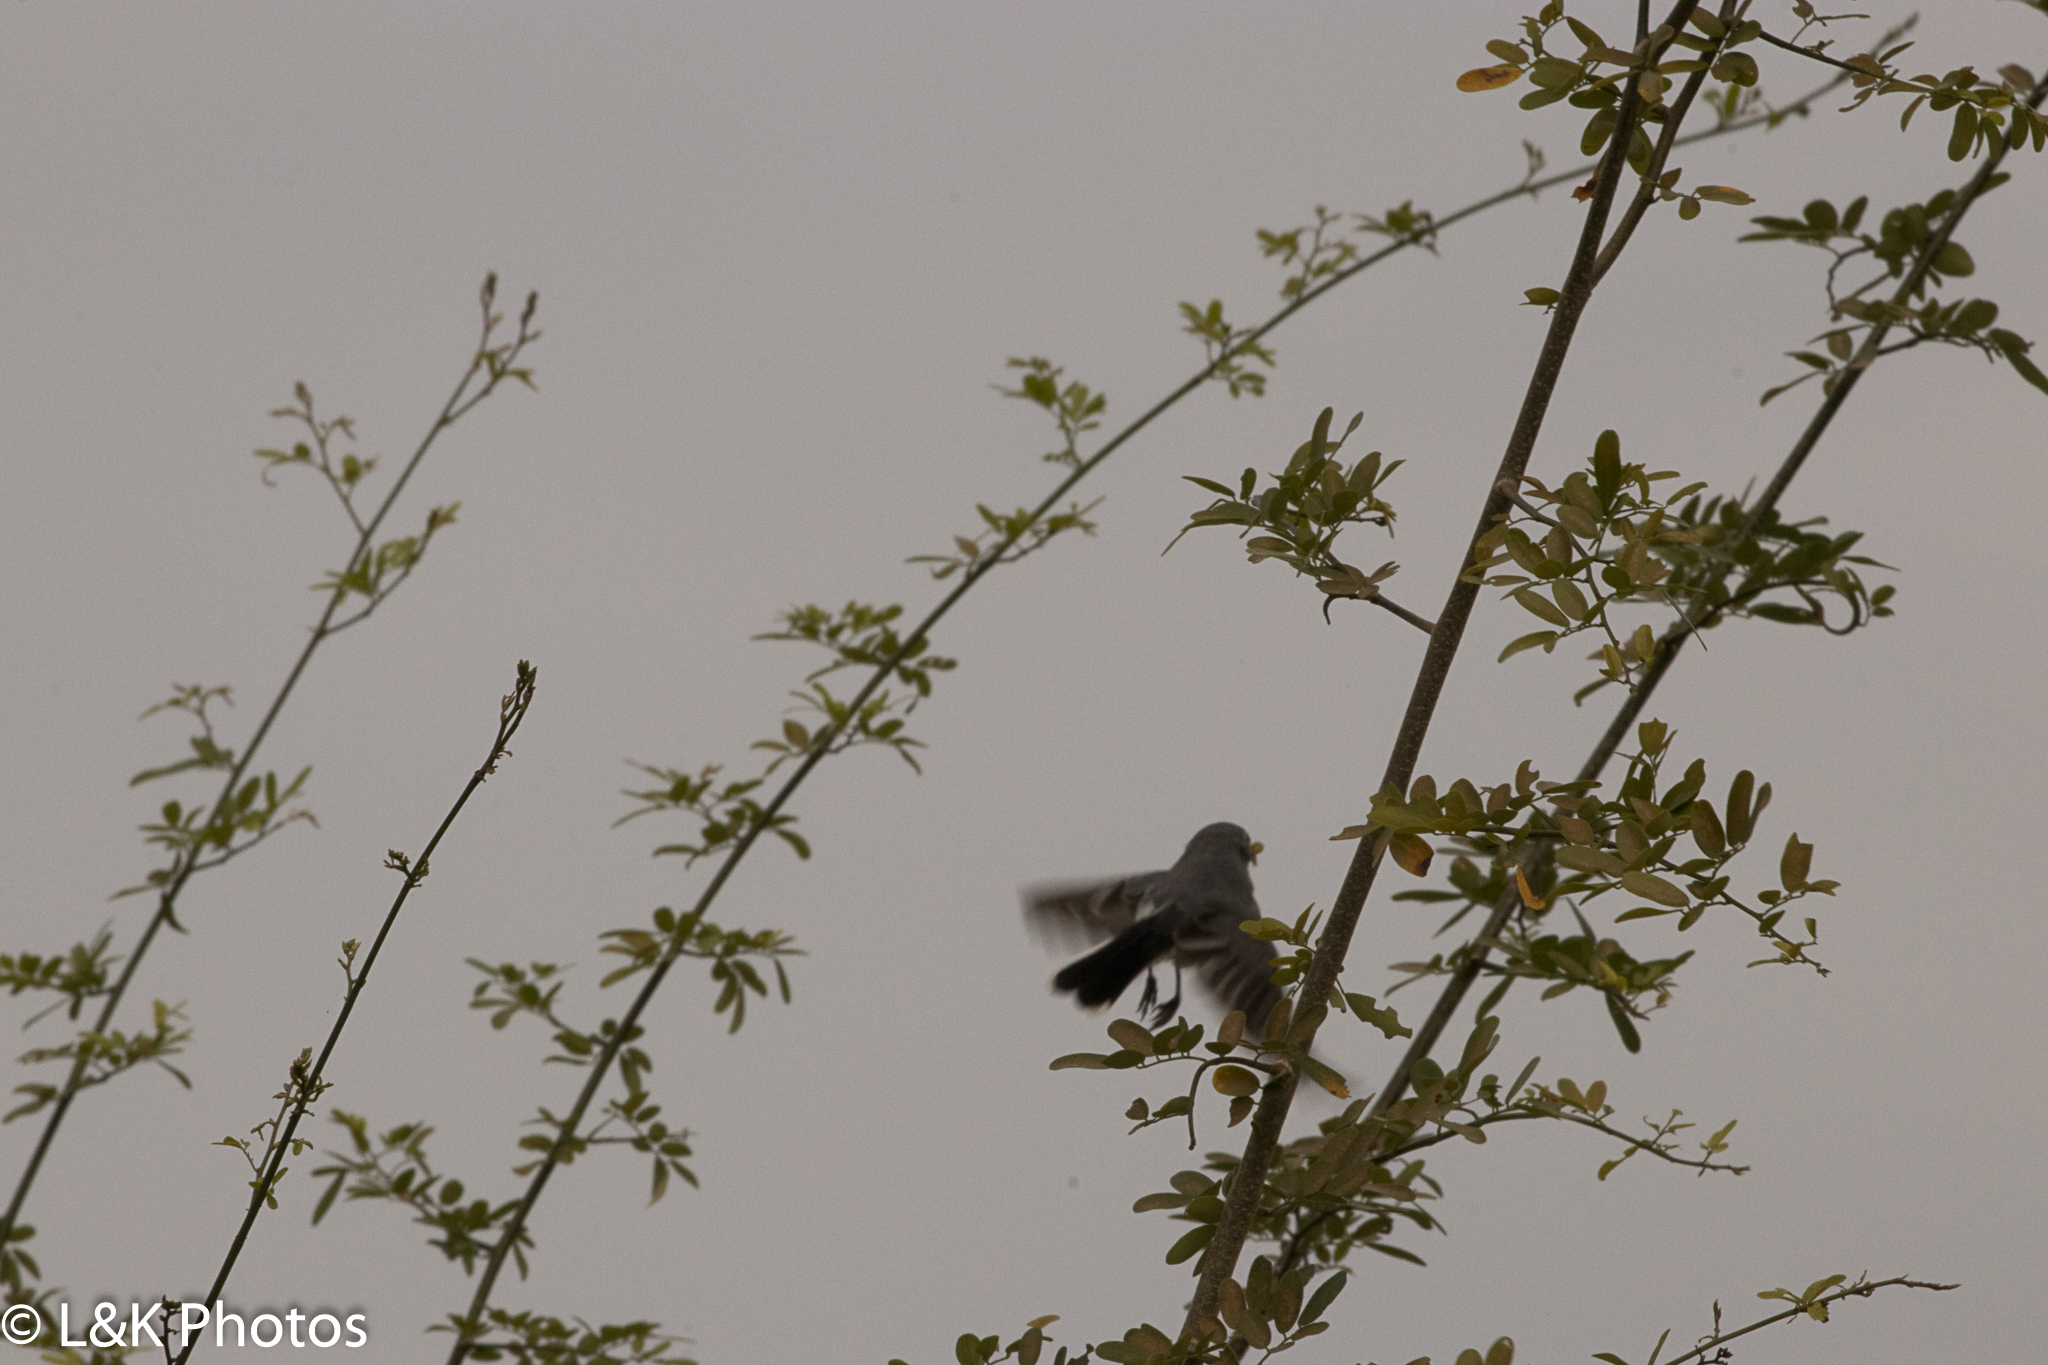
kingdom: Animalia
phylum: Chordata
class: Aves
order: Passeriformes
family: Polioptilidae
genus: Polioptila
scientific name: Polioptila caerulea
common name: Blue-gray gnatcatcher
